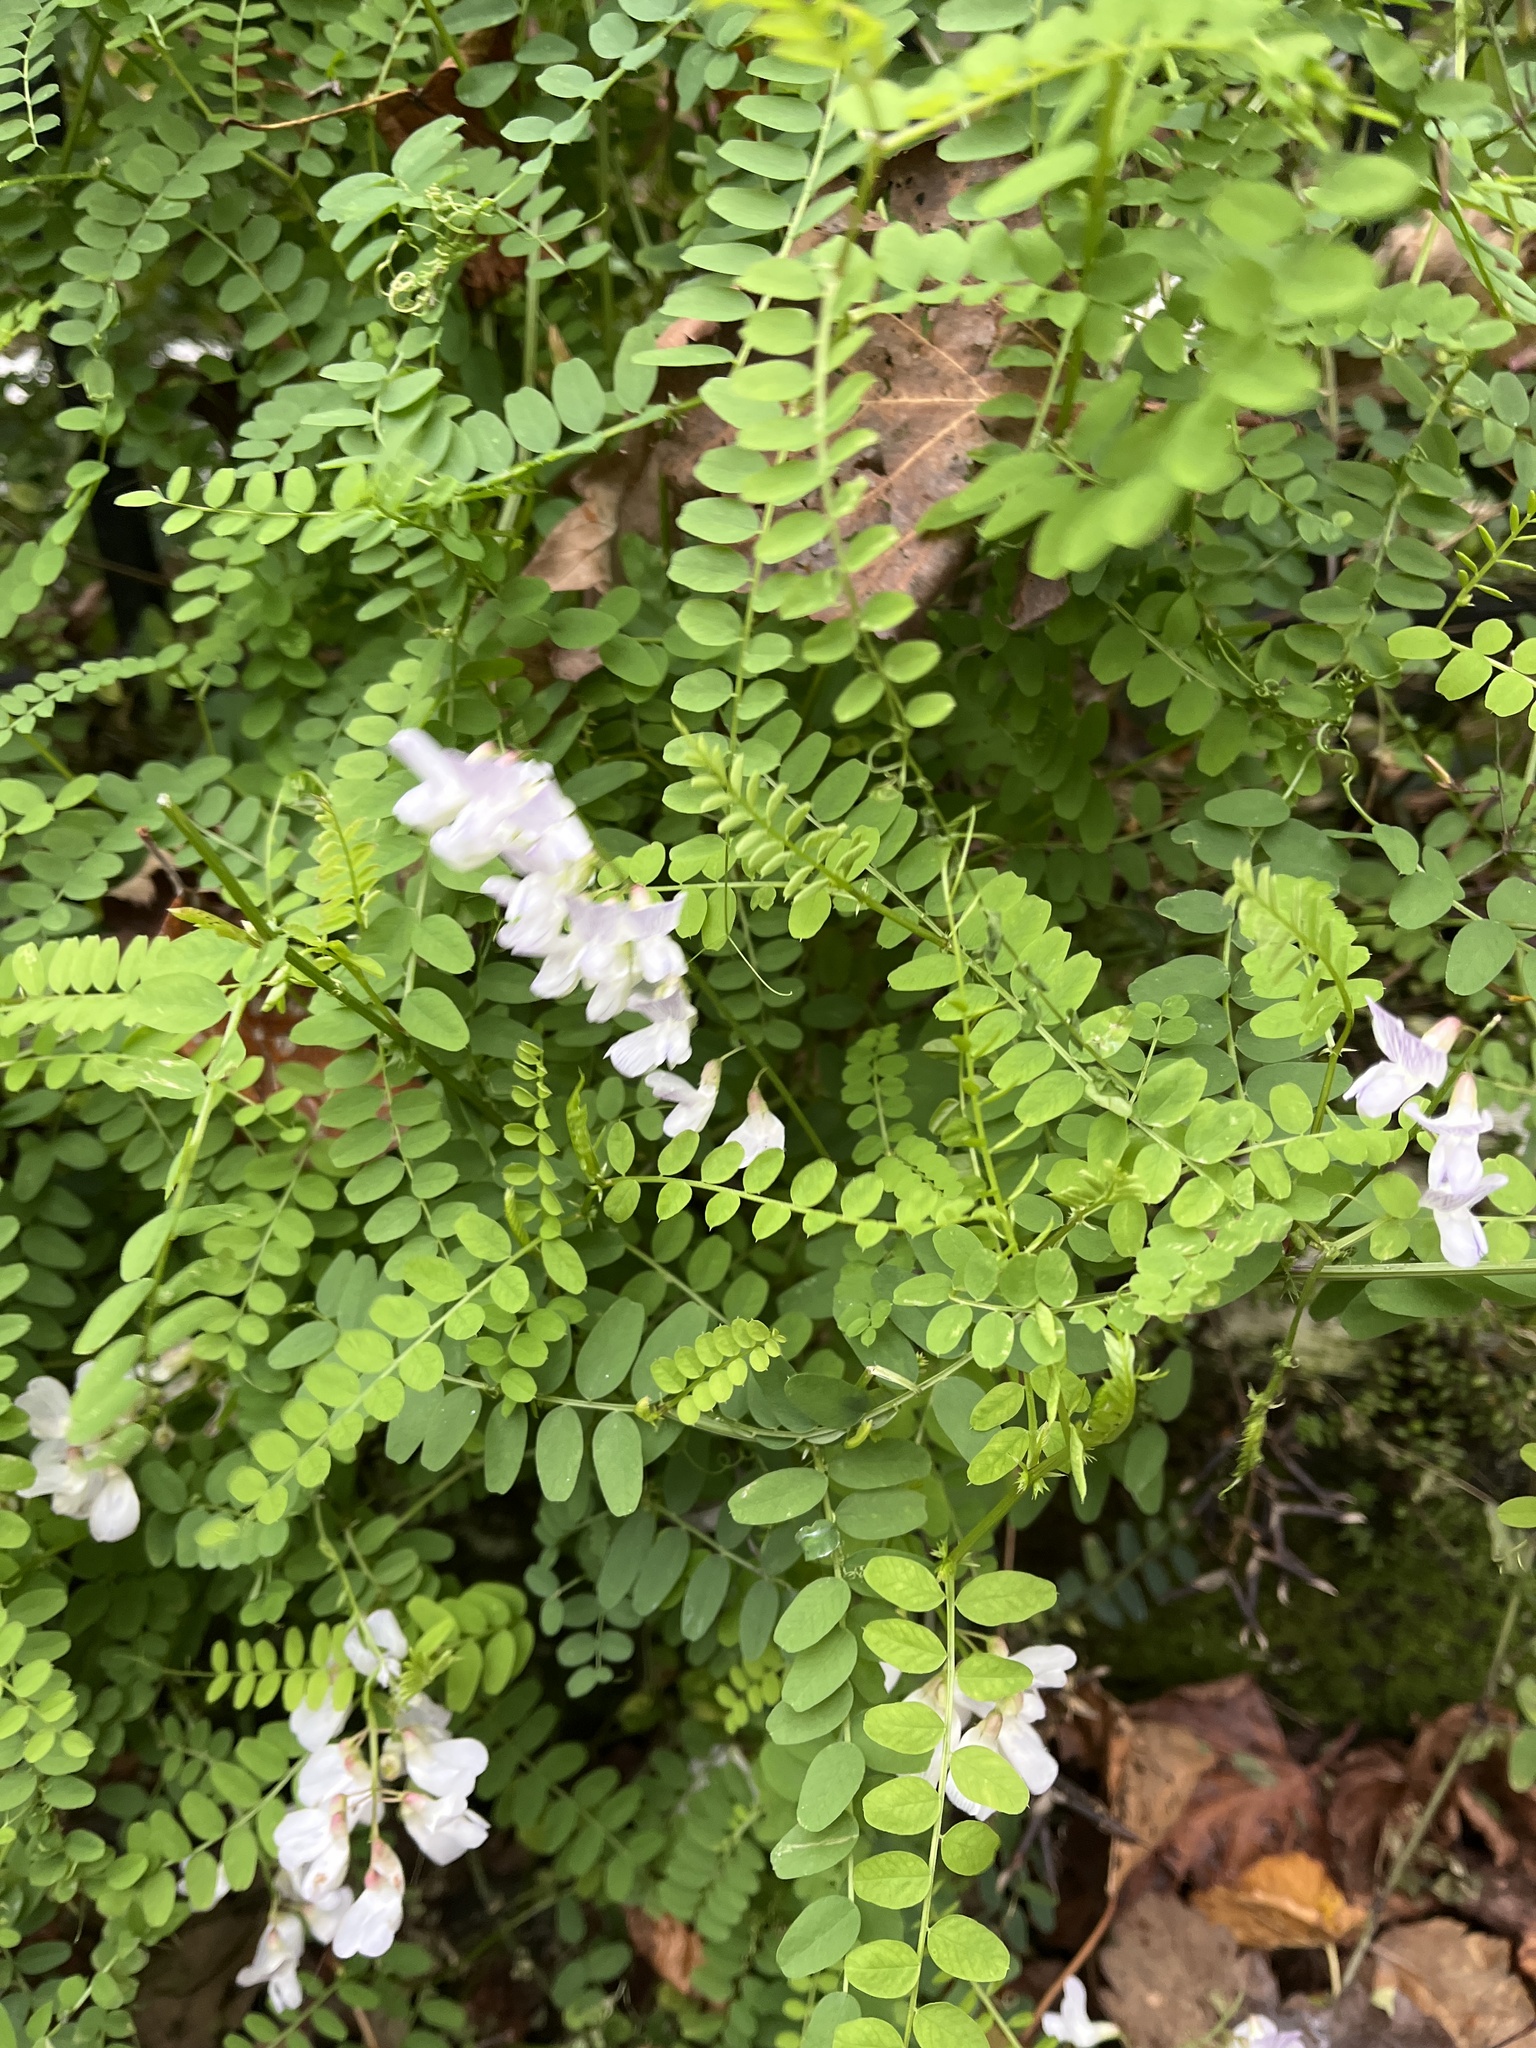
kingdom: Plantae
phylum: Tracheophyta
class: Magnoliopsida
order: Fabales
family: Fabaceae
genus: Vicia
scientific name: Vicia sylvatica
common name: Wood vetch
